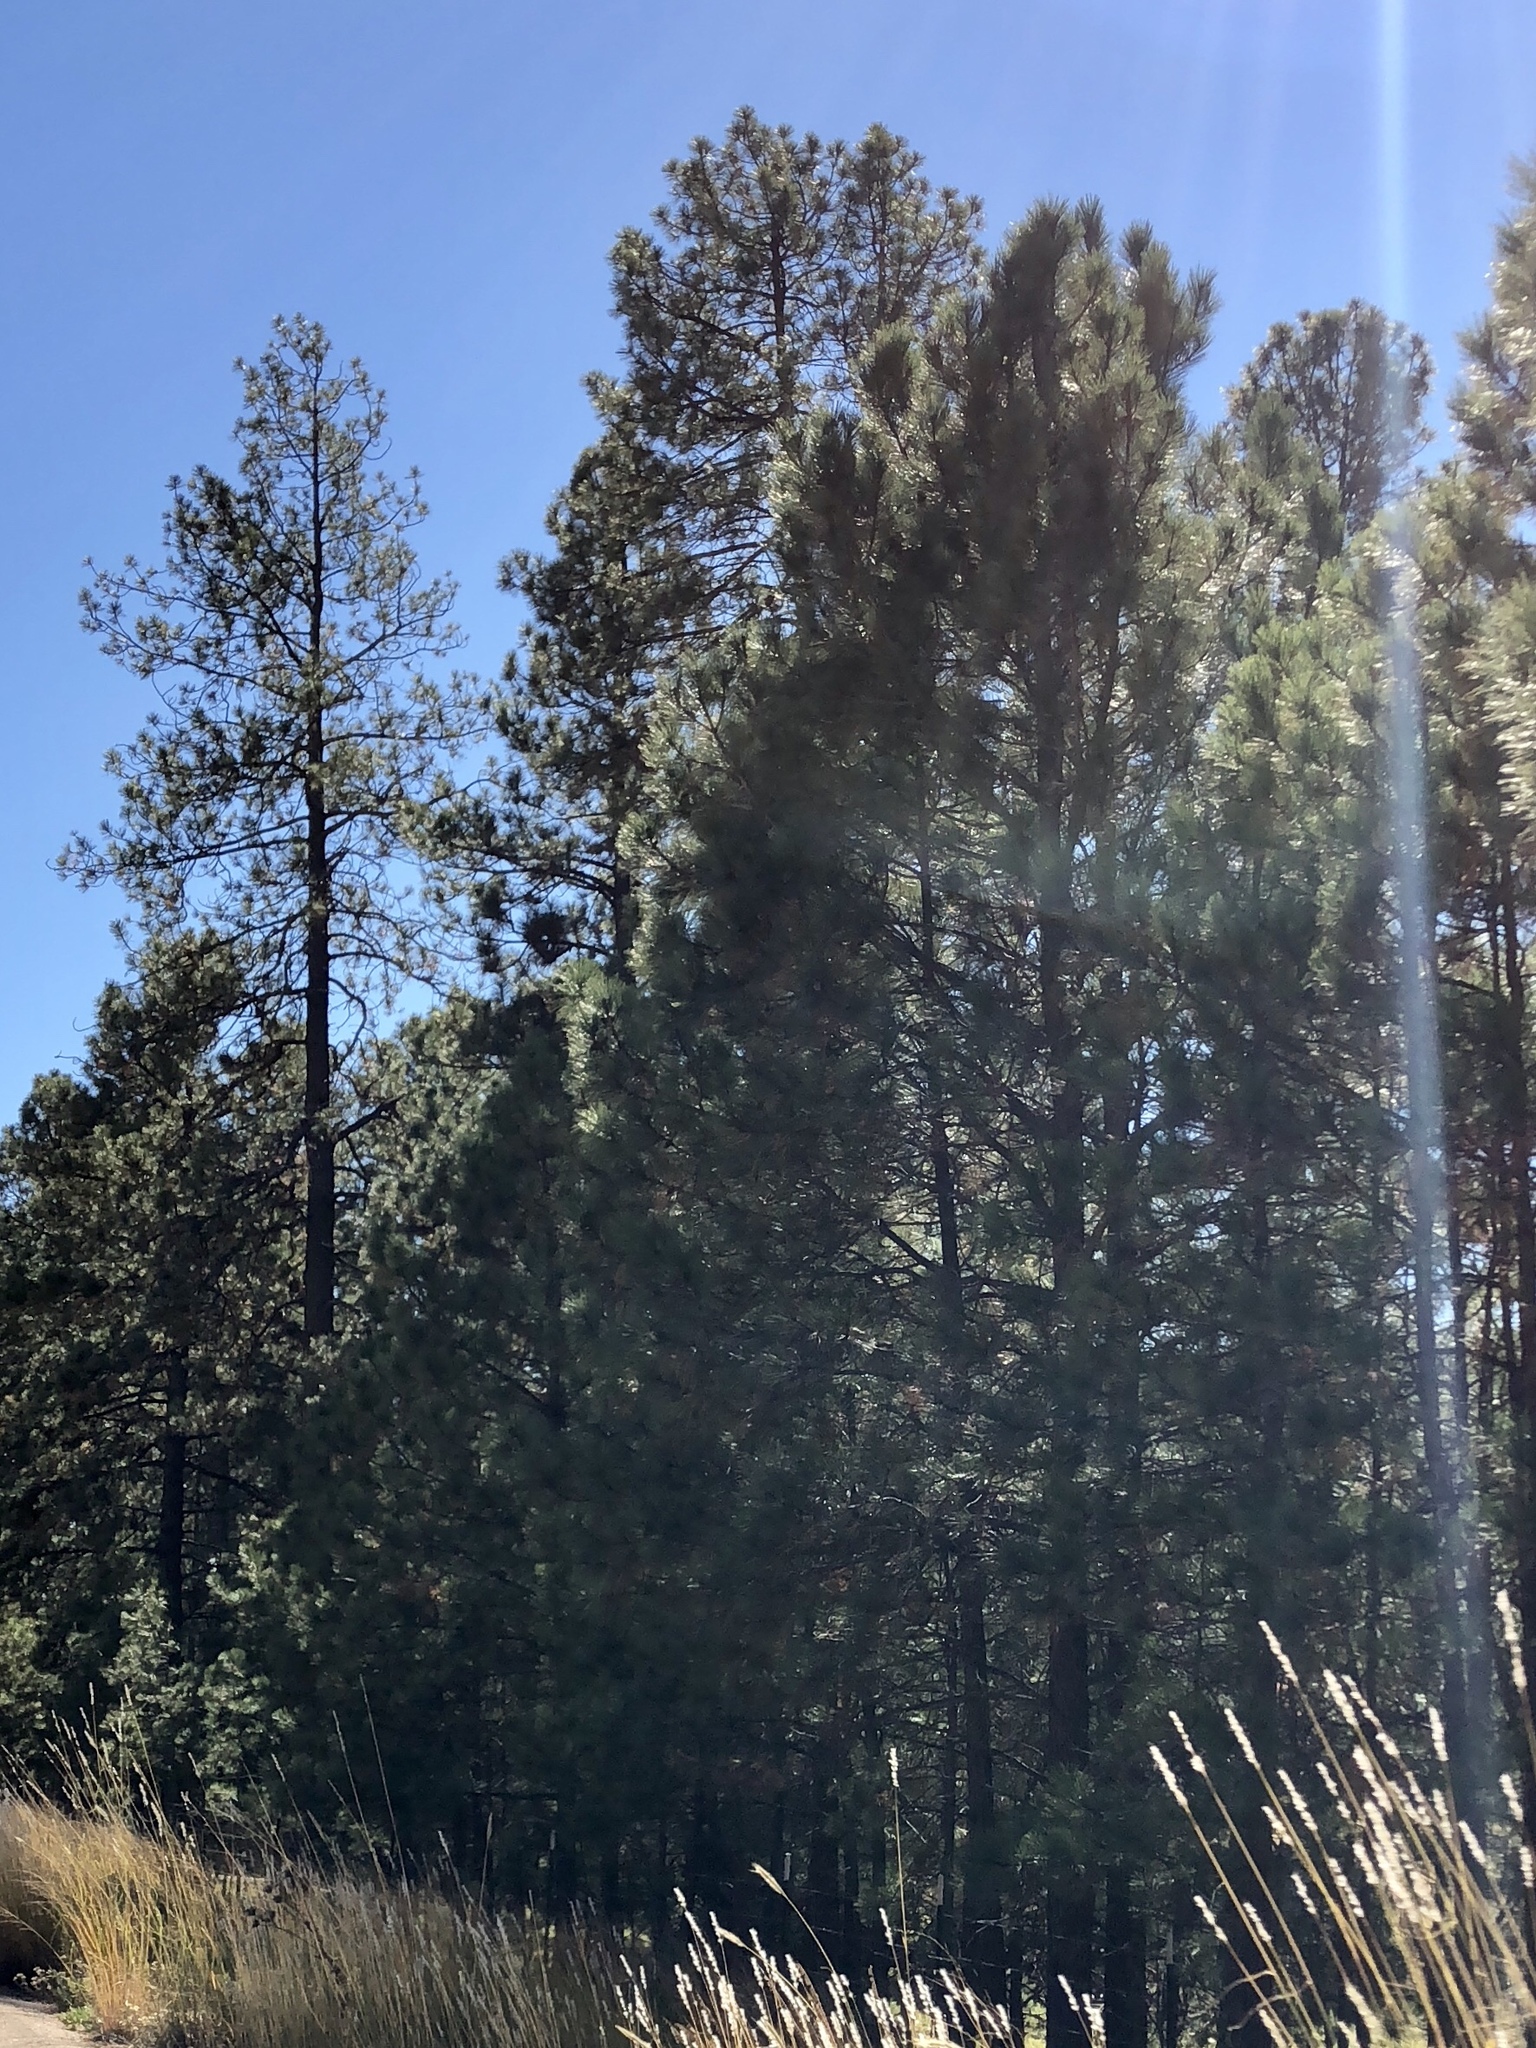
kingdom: Plantae
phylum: Tracheophyta
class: Pinopsida
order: Pinales
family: Pinaceae
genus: Pinus
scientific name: Pinus ponderosa
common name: Western yellow-pine
